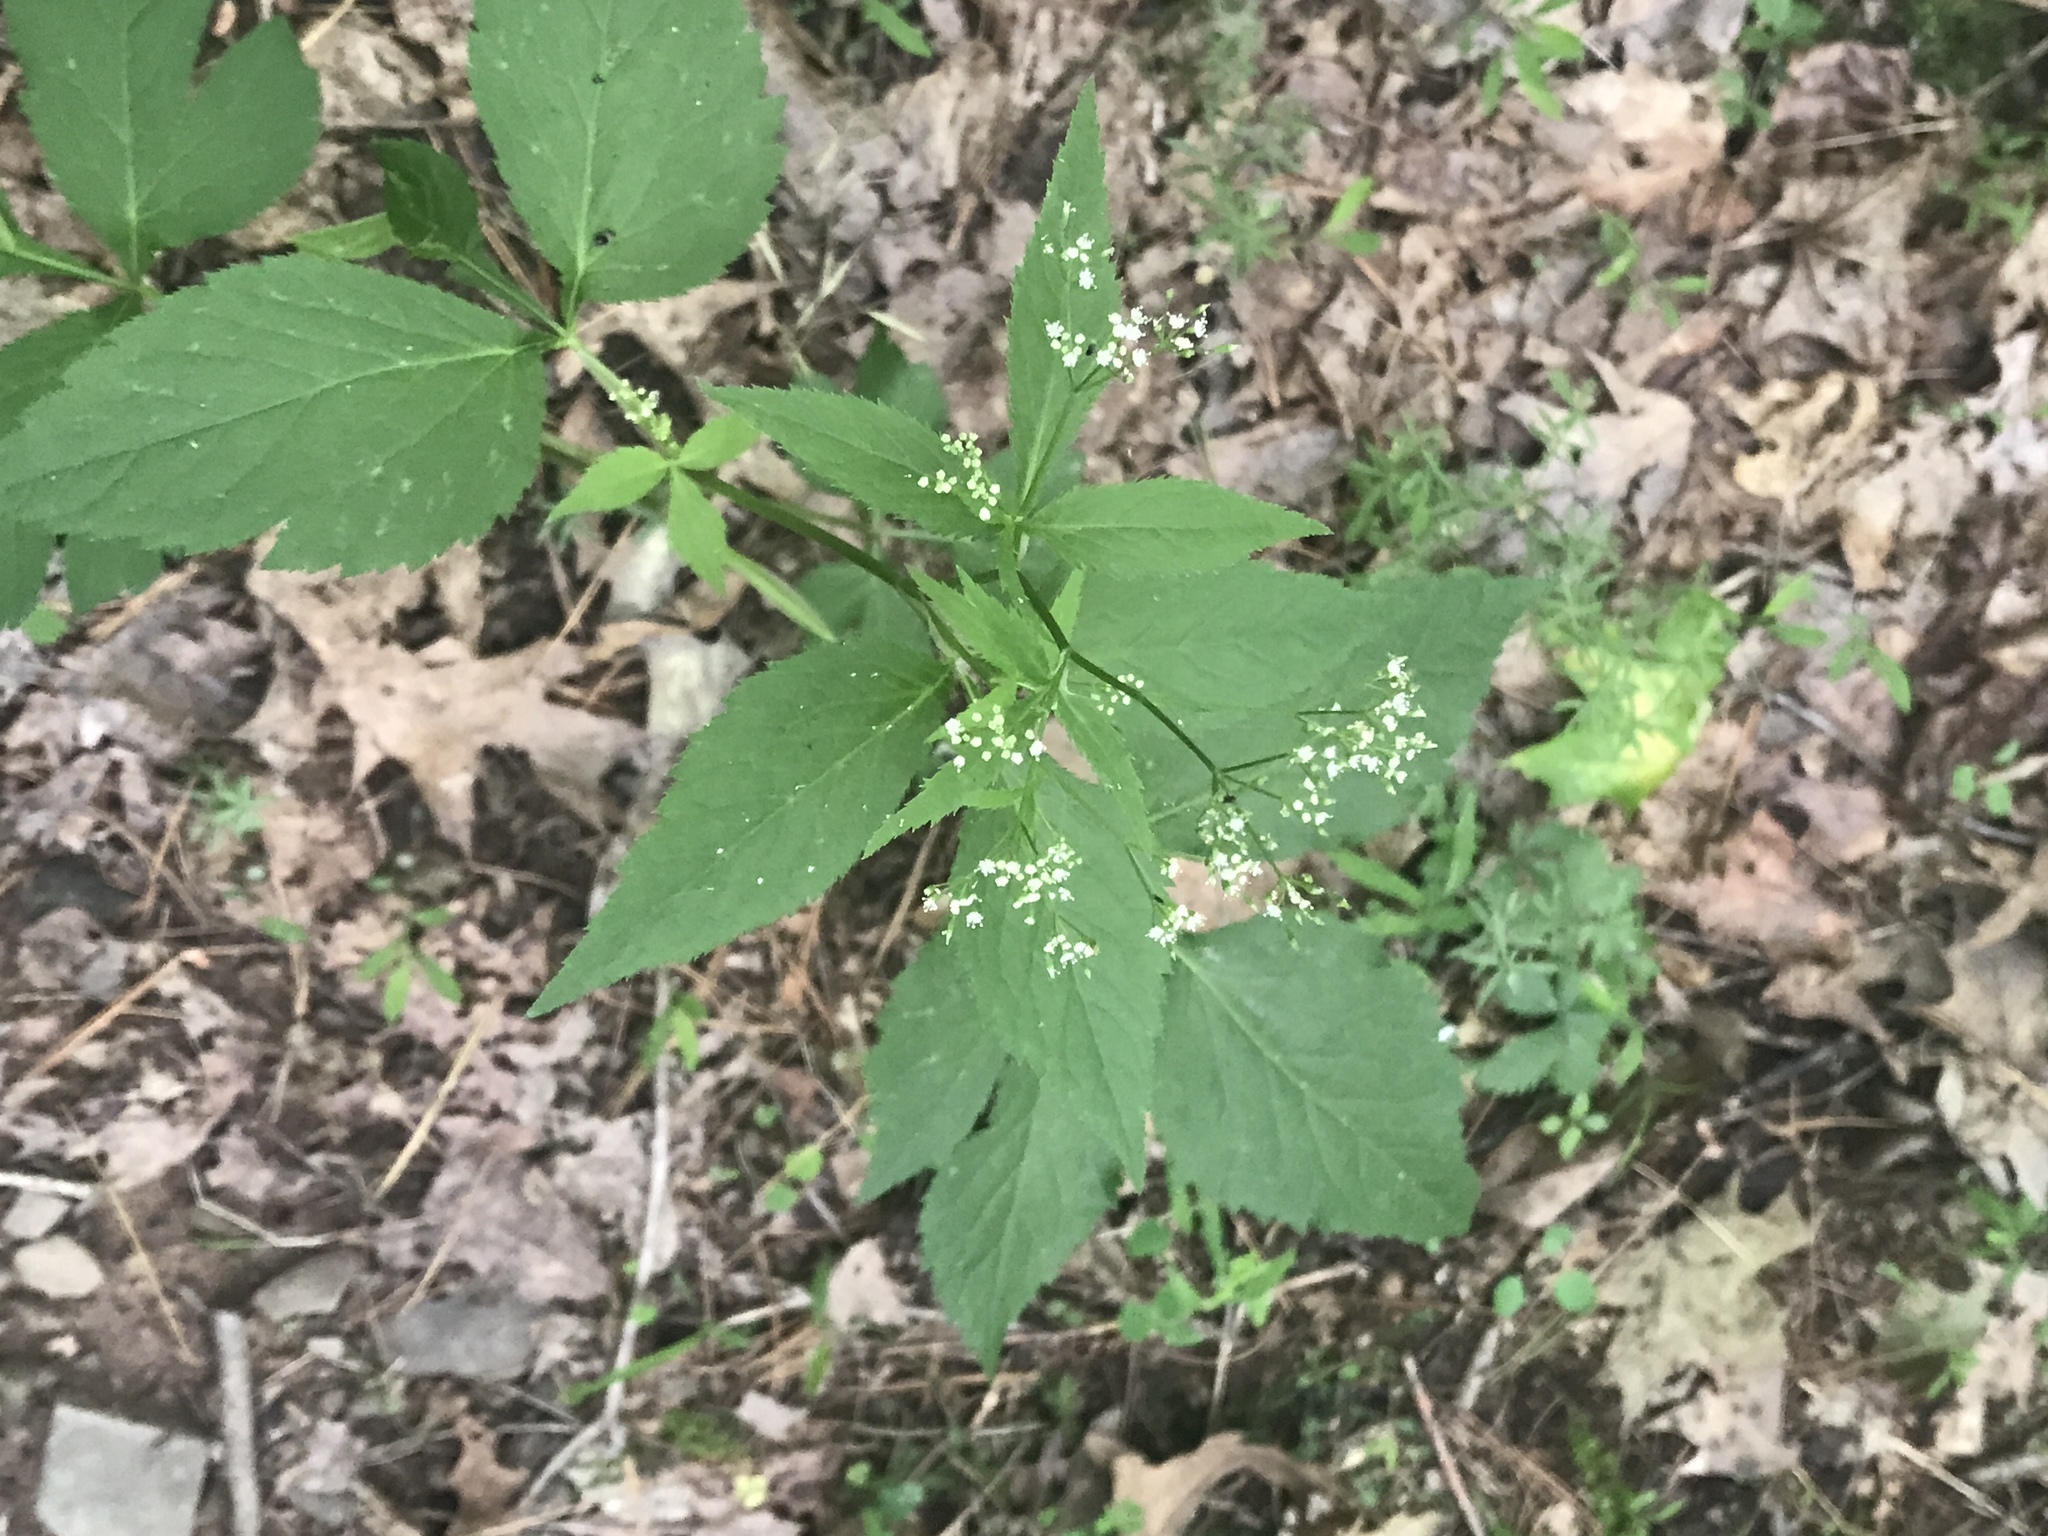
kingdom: Plantae
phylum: Tracheophyta
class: Magnoliopsida
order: Apiales
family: Apiaceae
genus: Cryptotaenia
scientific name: Cryptotaenia canadensis
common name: Honewort
